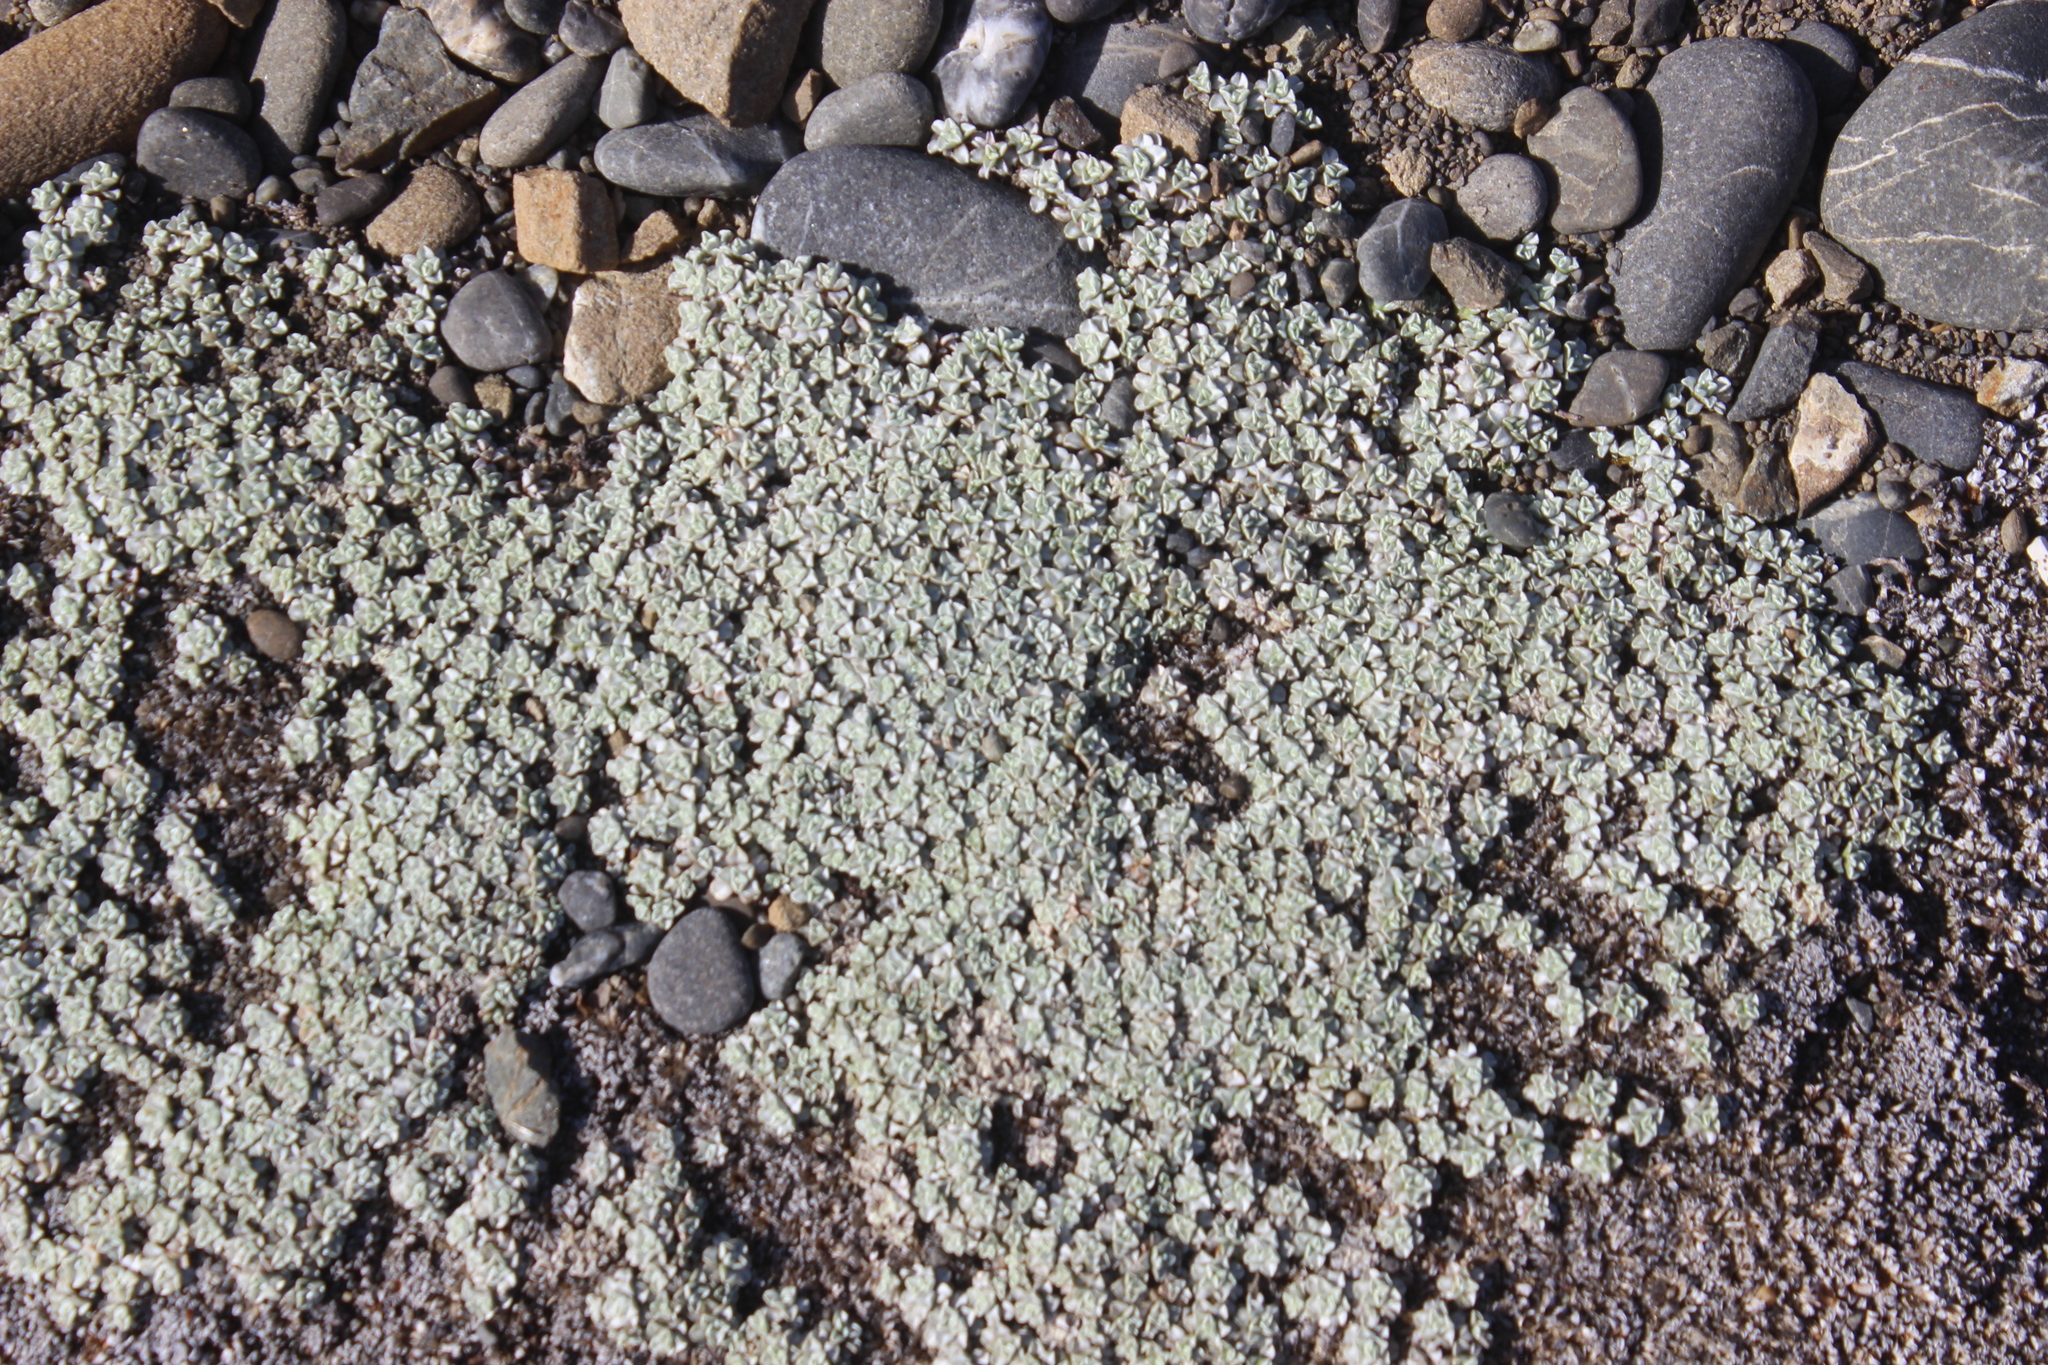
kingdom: Plantae
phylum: Tracheophyta
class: Magnoliopsida
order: Asterales
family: Asteraceae
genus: Raoulia
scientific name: Raoulia hookeri
